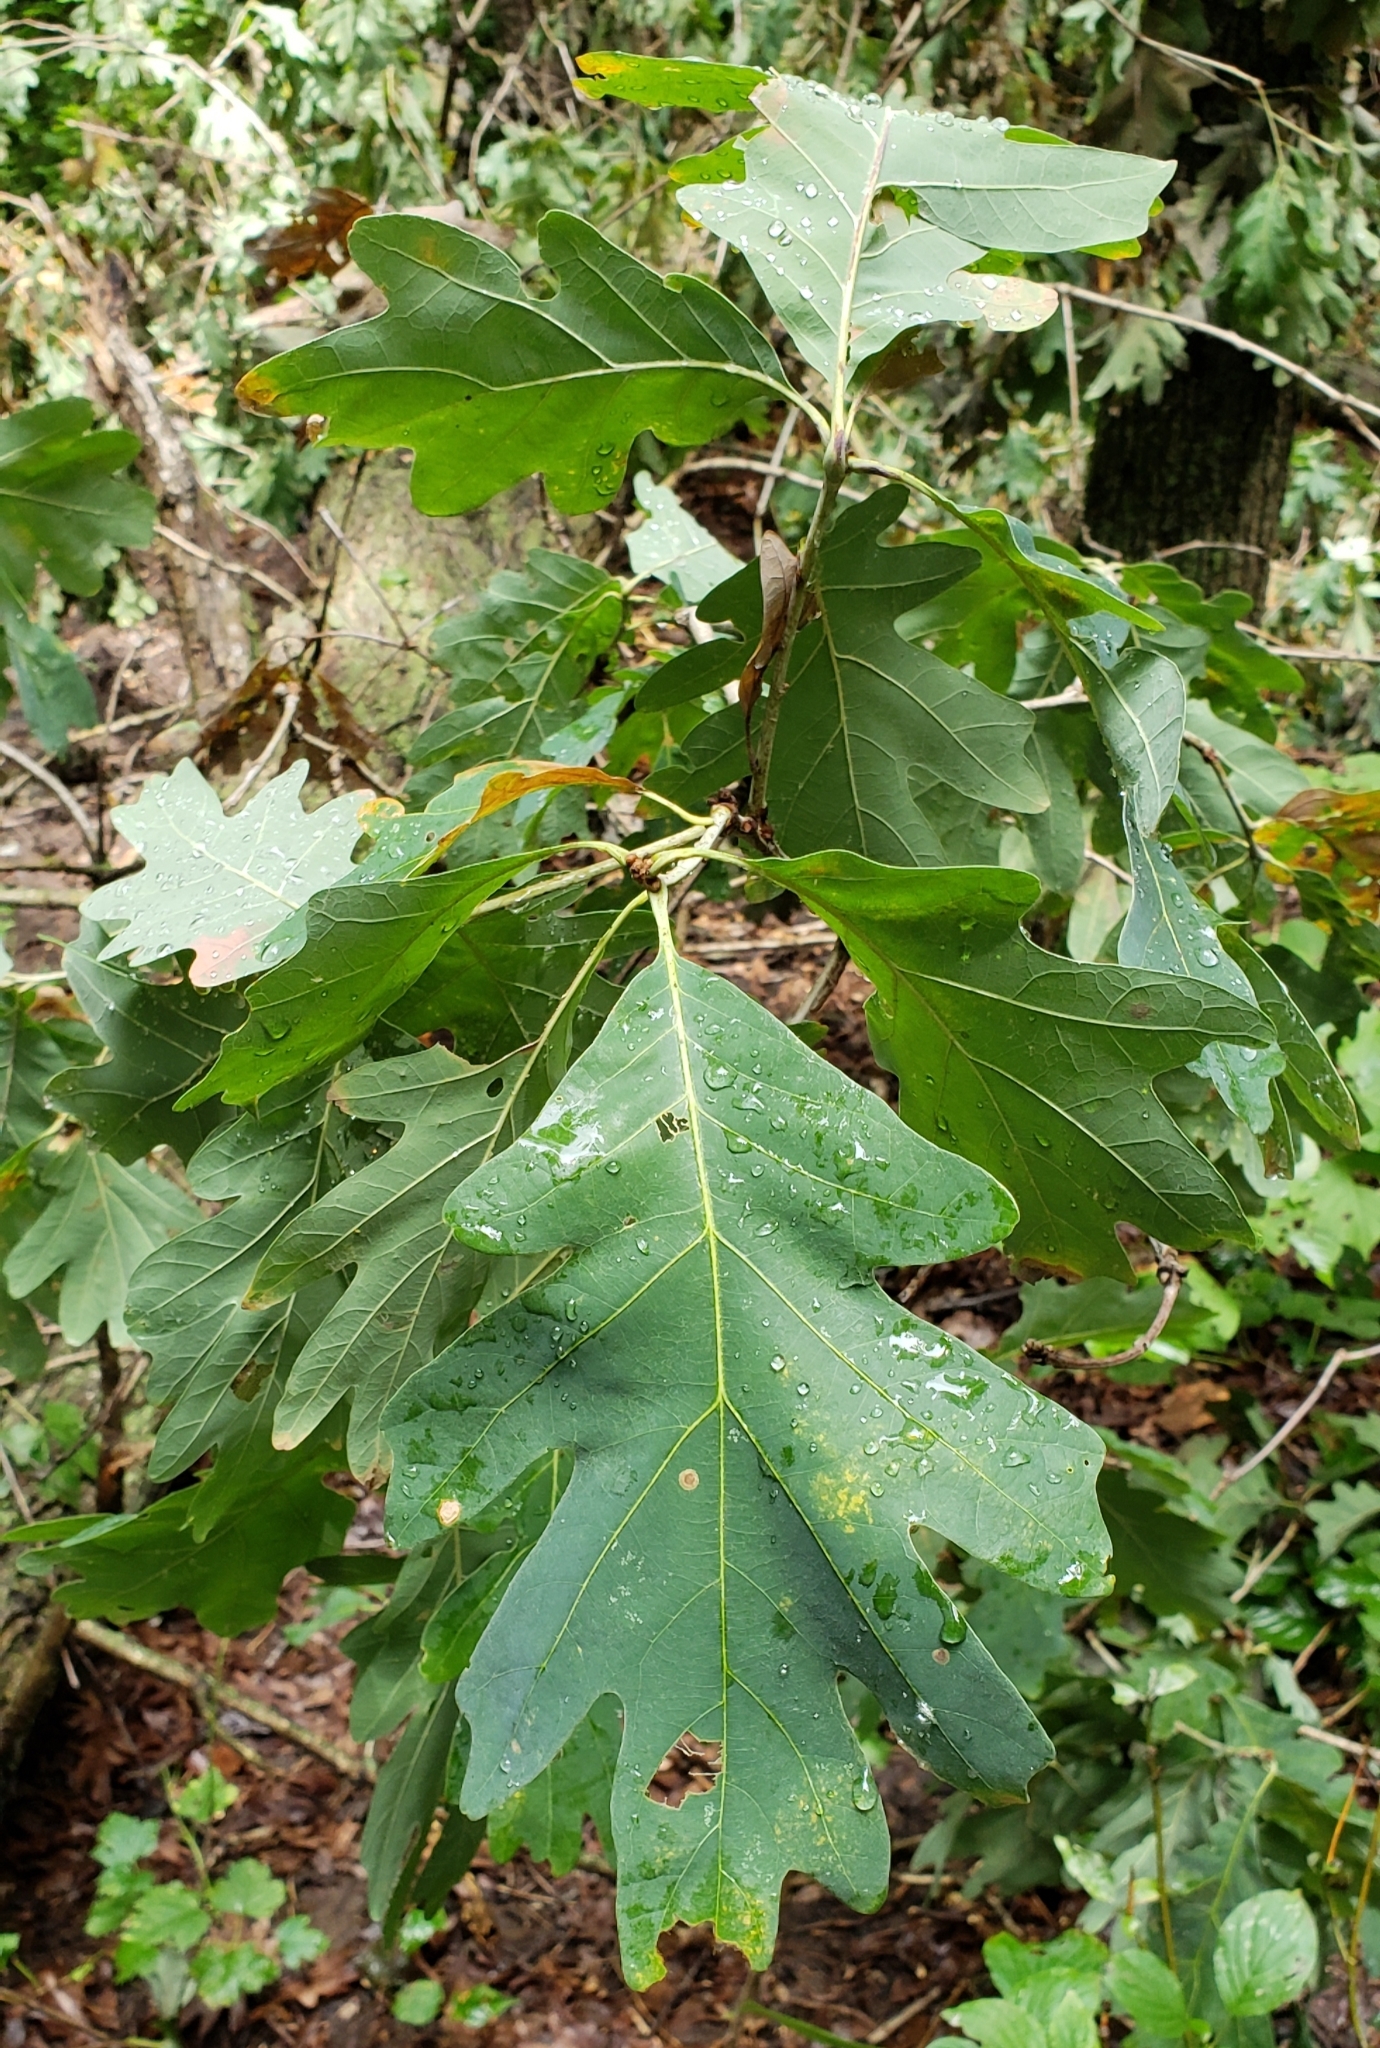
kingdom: Plantae
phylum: Tracheophyta
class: Magnoliopsida
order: Fagales
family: Fagaceae
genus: Quercus
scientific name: Quercus alba
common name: White oak
